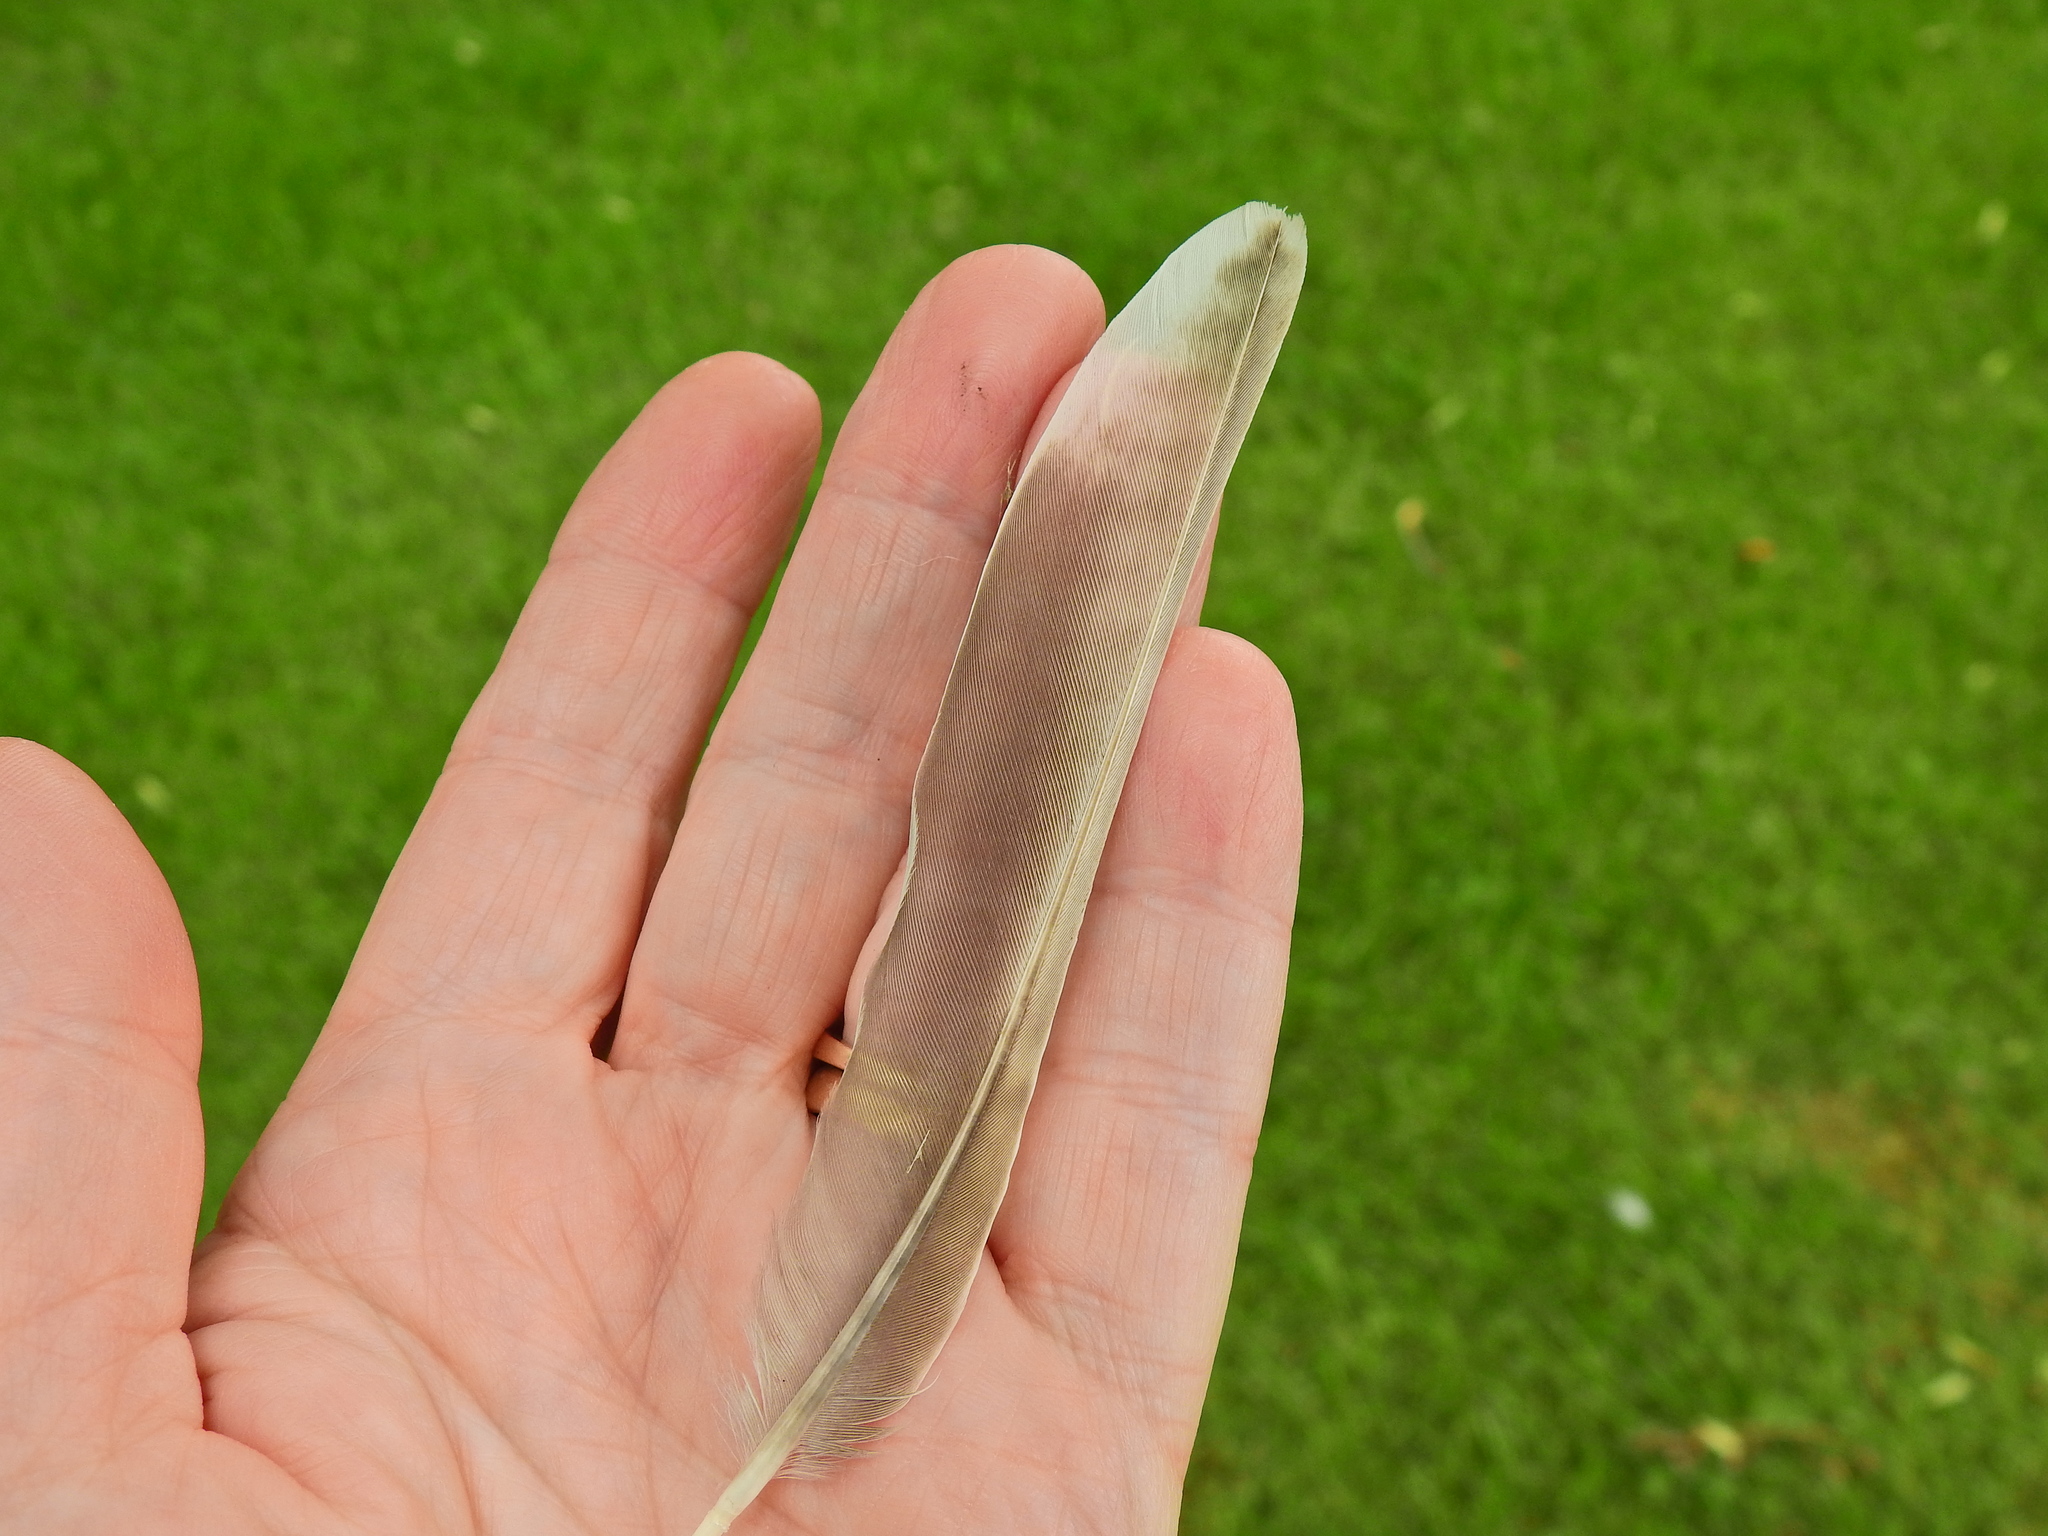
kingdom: Animalia
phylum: Chordata
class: Aves
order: Passeriformes
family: Turdidae
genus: Turdus
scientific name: Turdus viscivorus
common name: Mistle thrush
